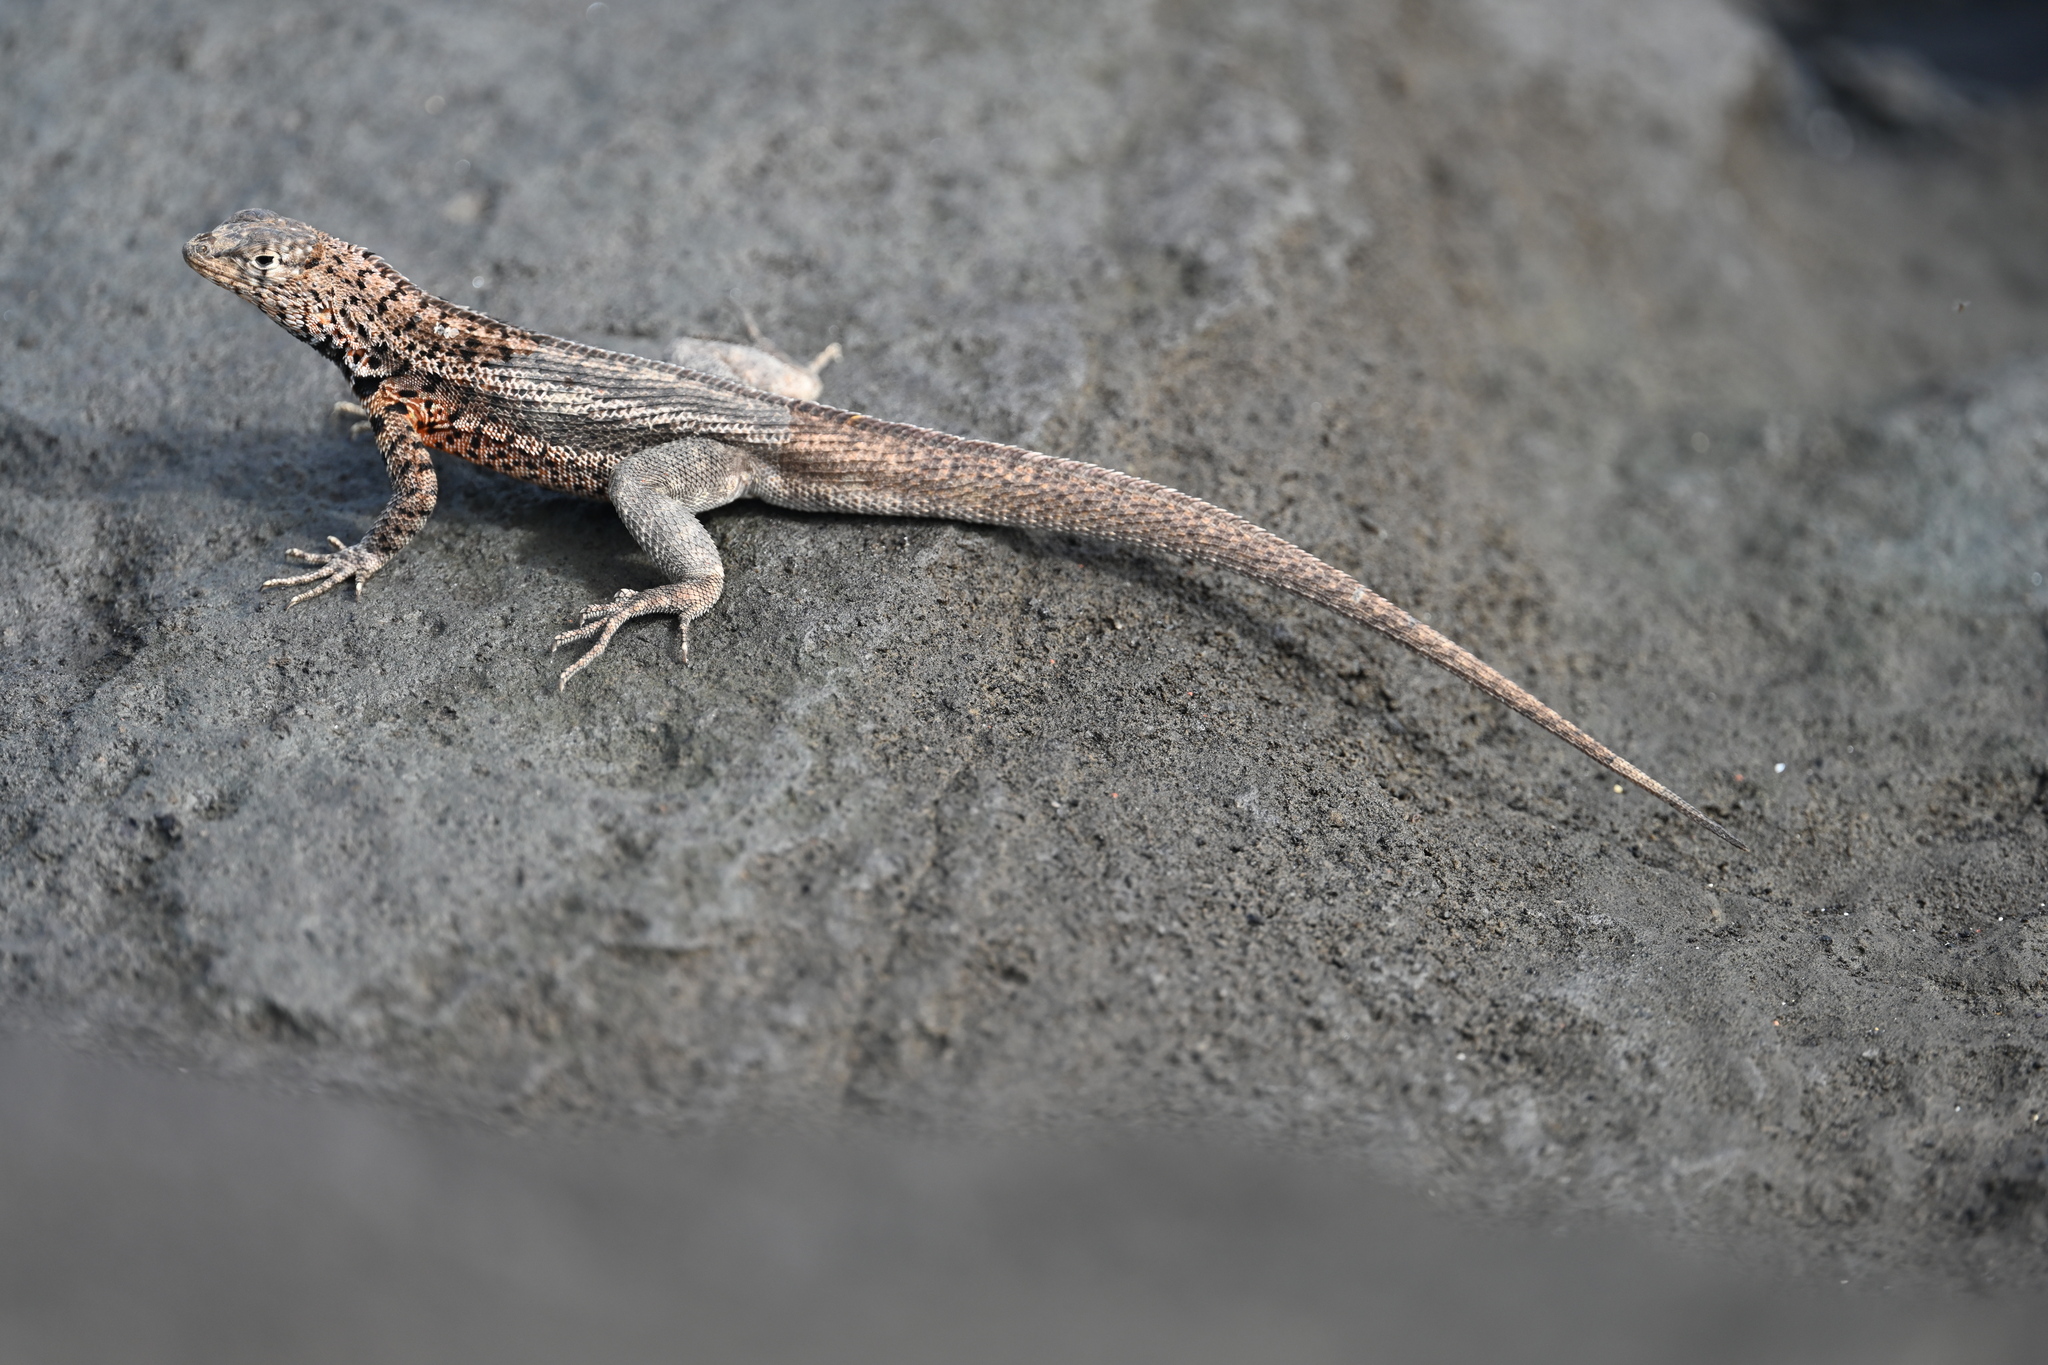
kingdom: Animalia
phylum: Chordata
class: Squamata
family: Tropiduridae
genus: Microlophus
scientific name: Microlophus jacobii
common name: Santiago lava lizard
